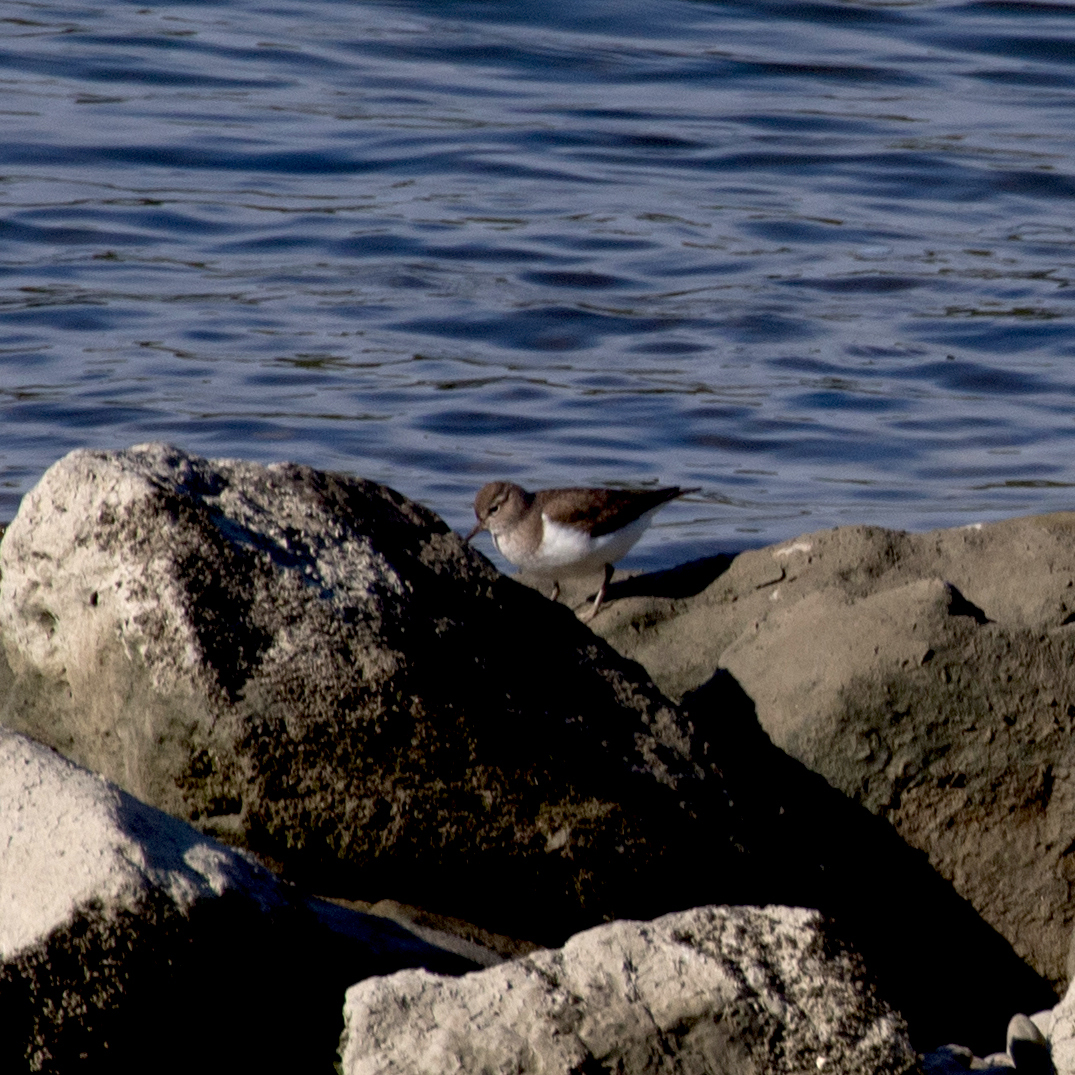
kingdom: Animalia
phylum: Chordata
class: Aves
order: Charadriiformes
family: Scolopacidae
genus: Actitis
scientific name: Actitis hypoleucos
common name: Common sandpiper
